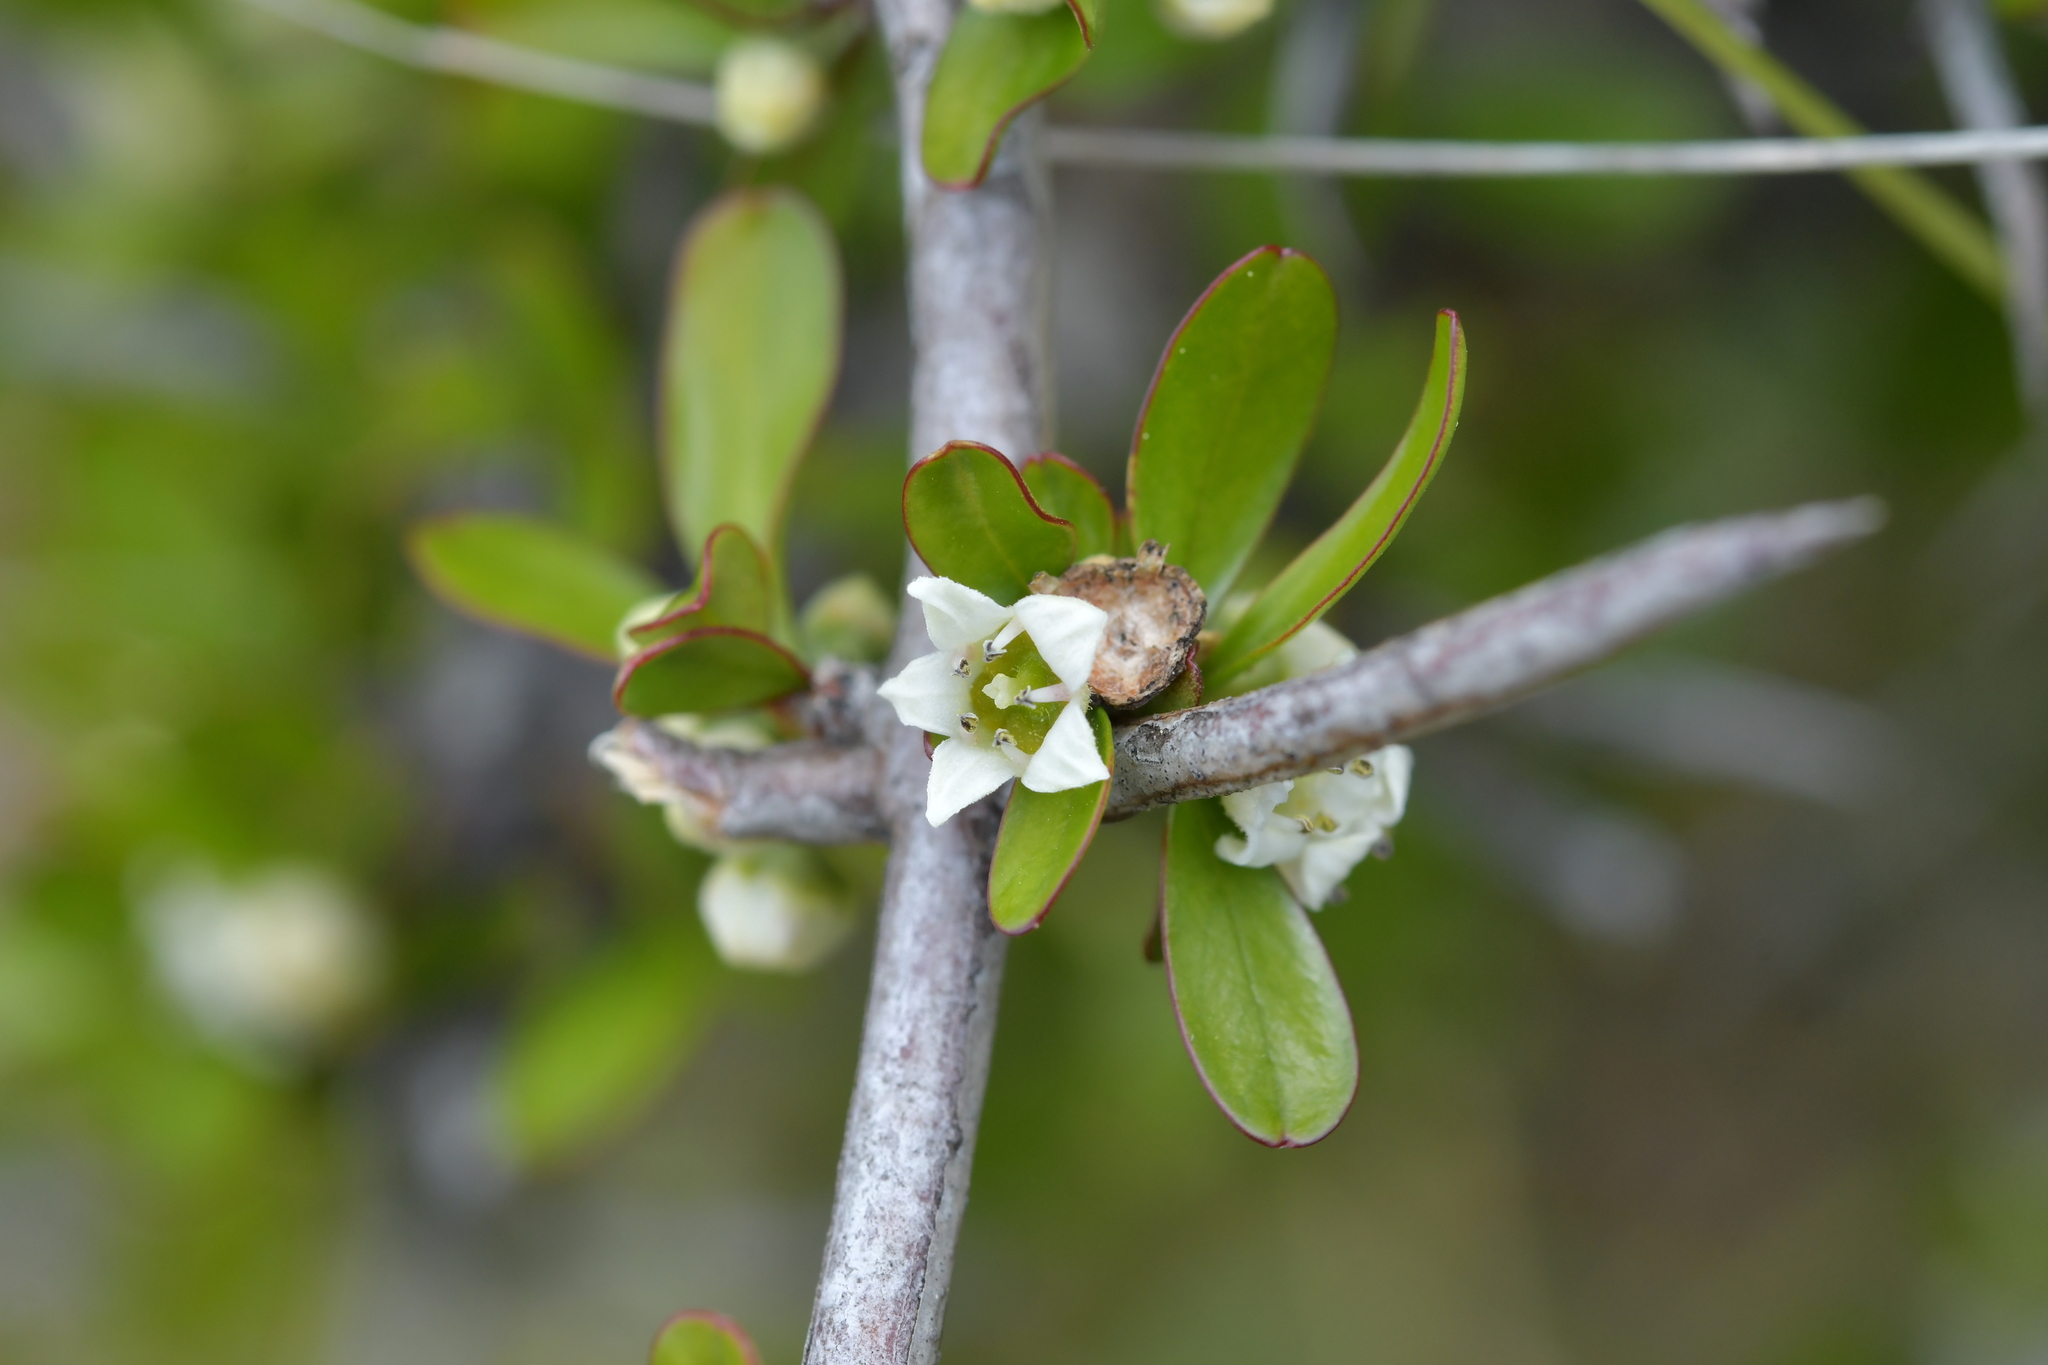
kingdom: Plantae
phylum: Tracheophyta
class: Magnoliopsida
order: Rosales
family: Rhamnaceae
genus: Discaria
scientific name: Discaria toumatou
